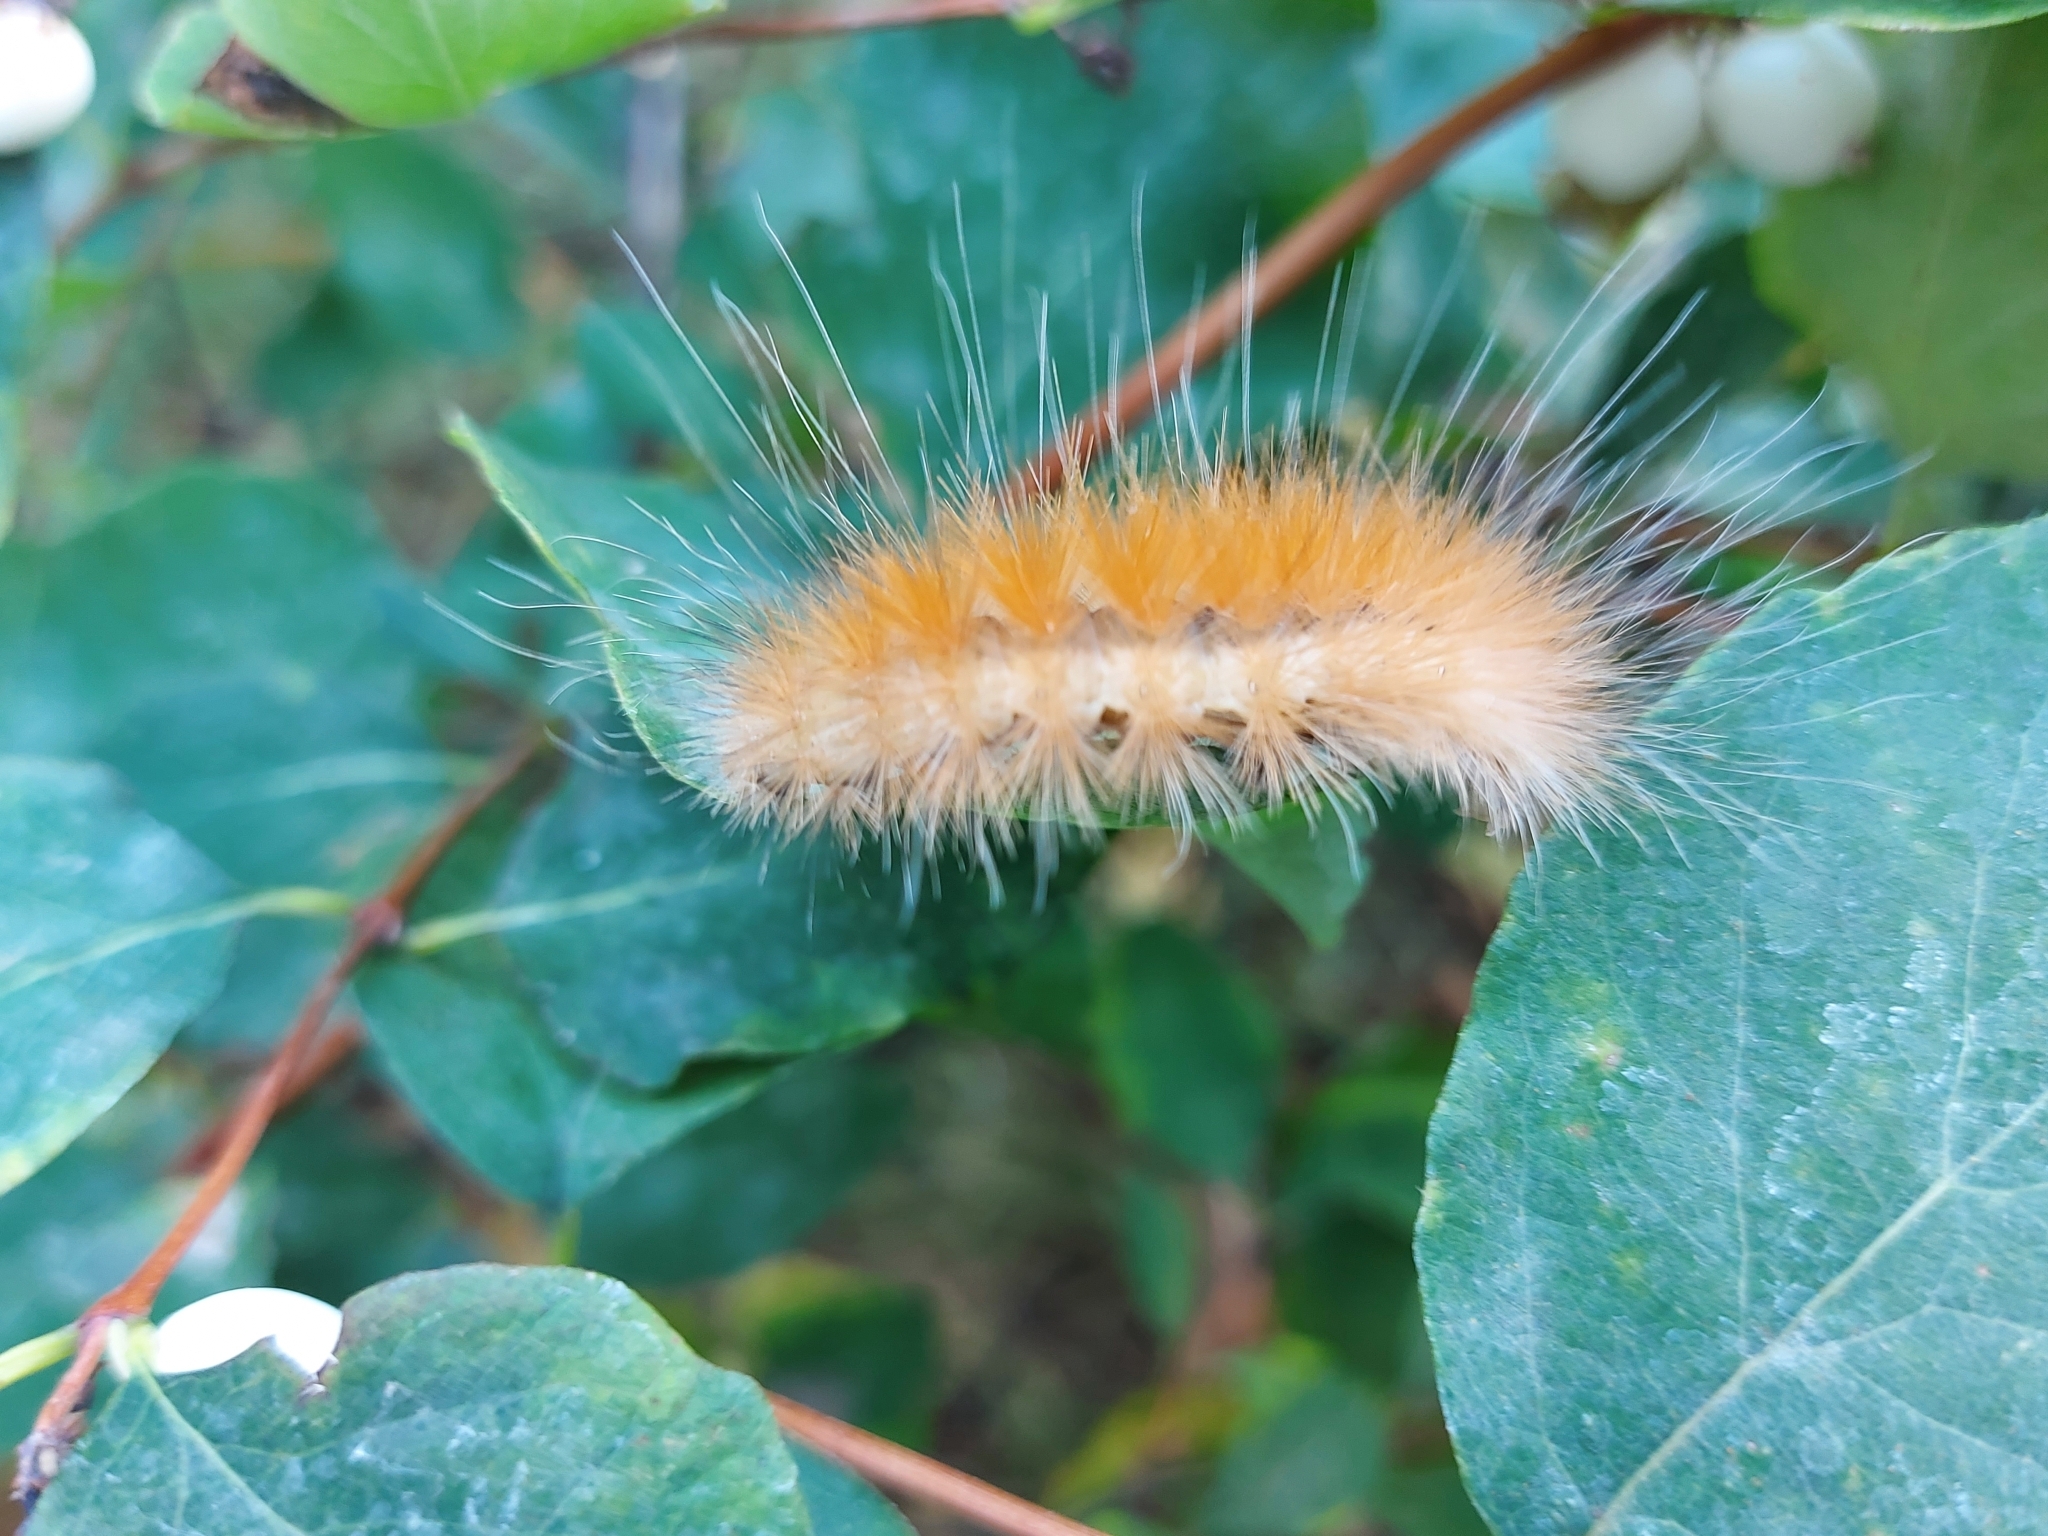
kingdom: Animalia
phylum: Arthropoda
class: Insecta
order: Lepidoptera
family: Erebidae
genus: Spilosoma
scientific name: Spilosoma virginica
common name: Virginia tiger moth
